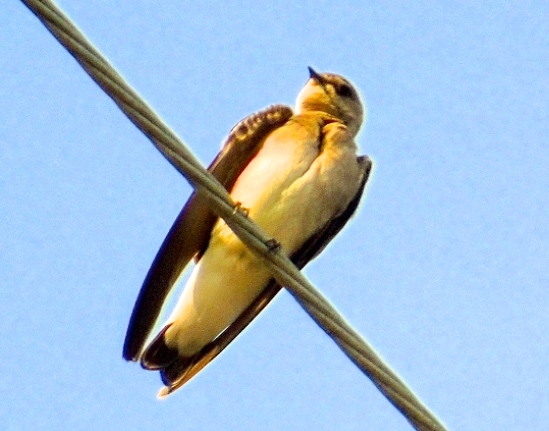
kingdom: Animalia
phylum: Chordata
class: Aves
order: Passeriformes
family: Hirundinidae
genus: Stelgidopteryx
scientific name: Stelgidopteryx serripennis
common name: Northern rough-winged swallow
